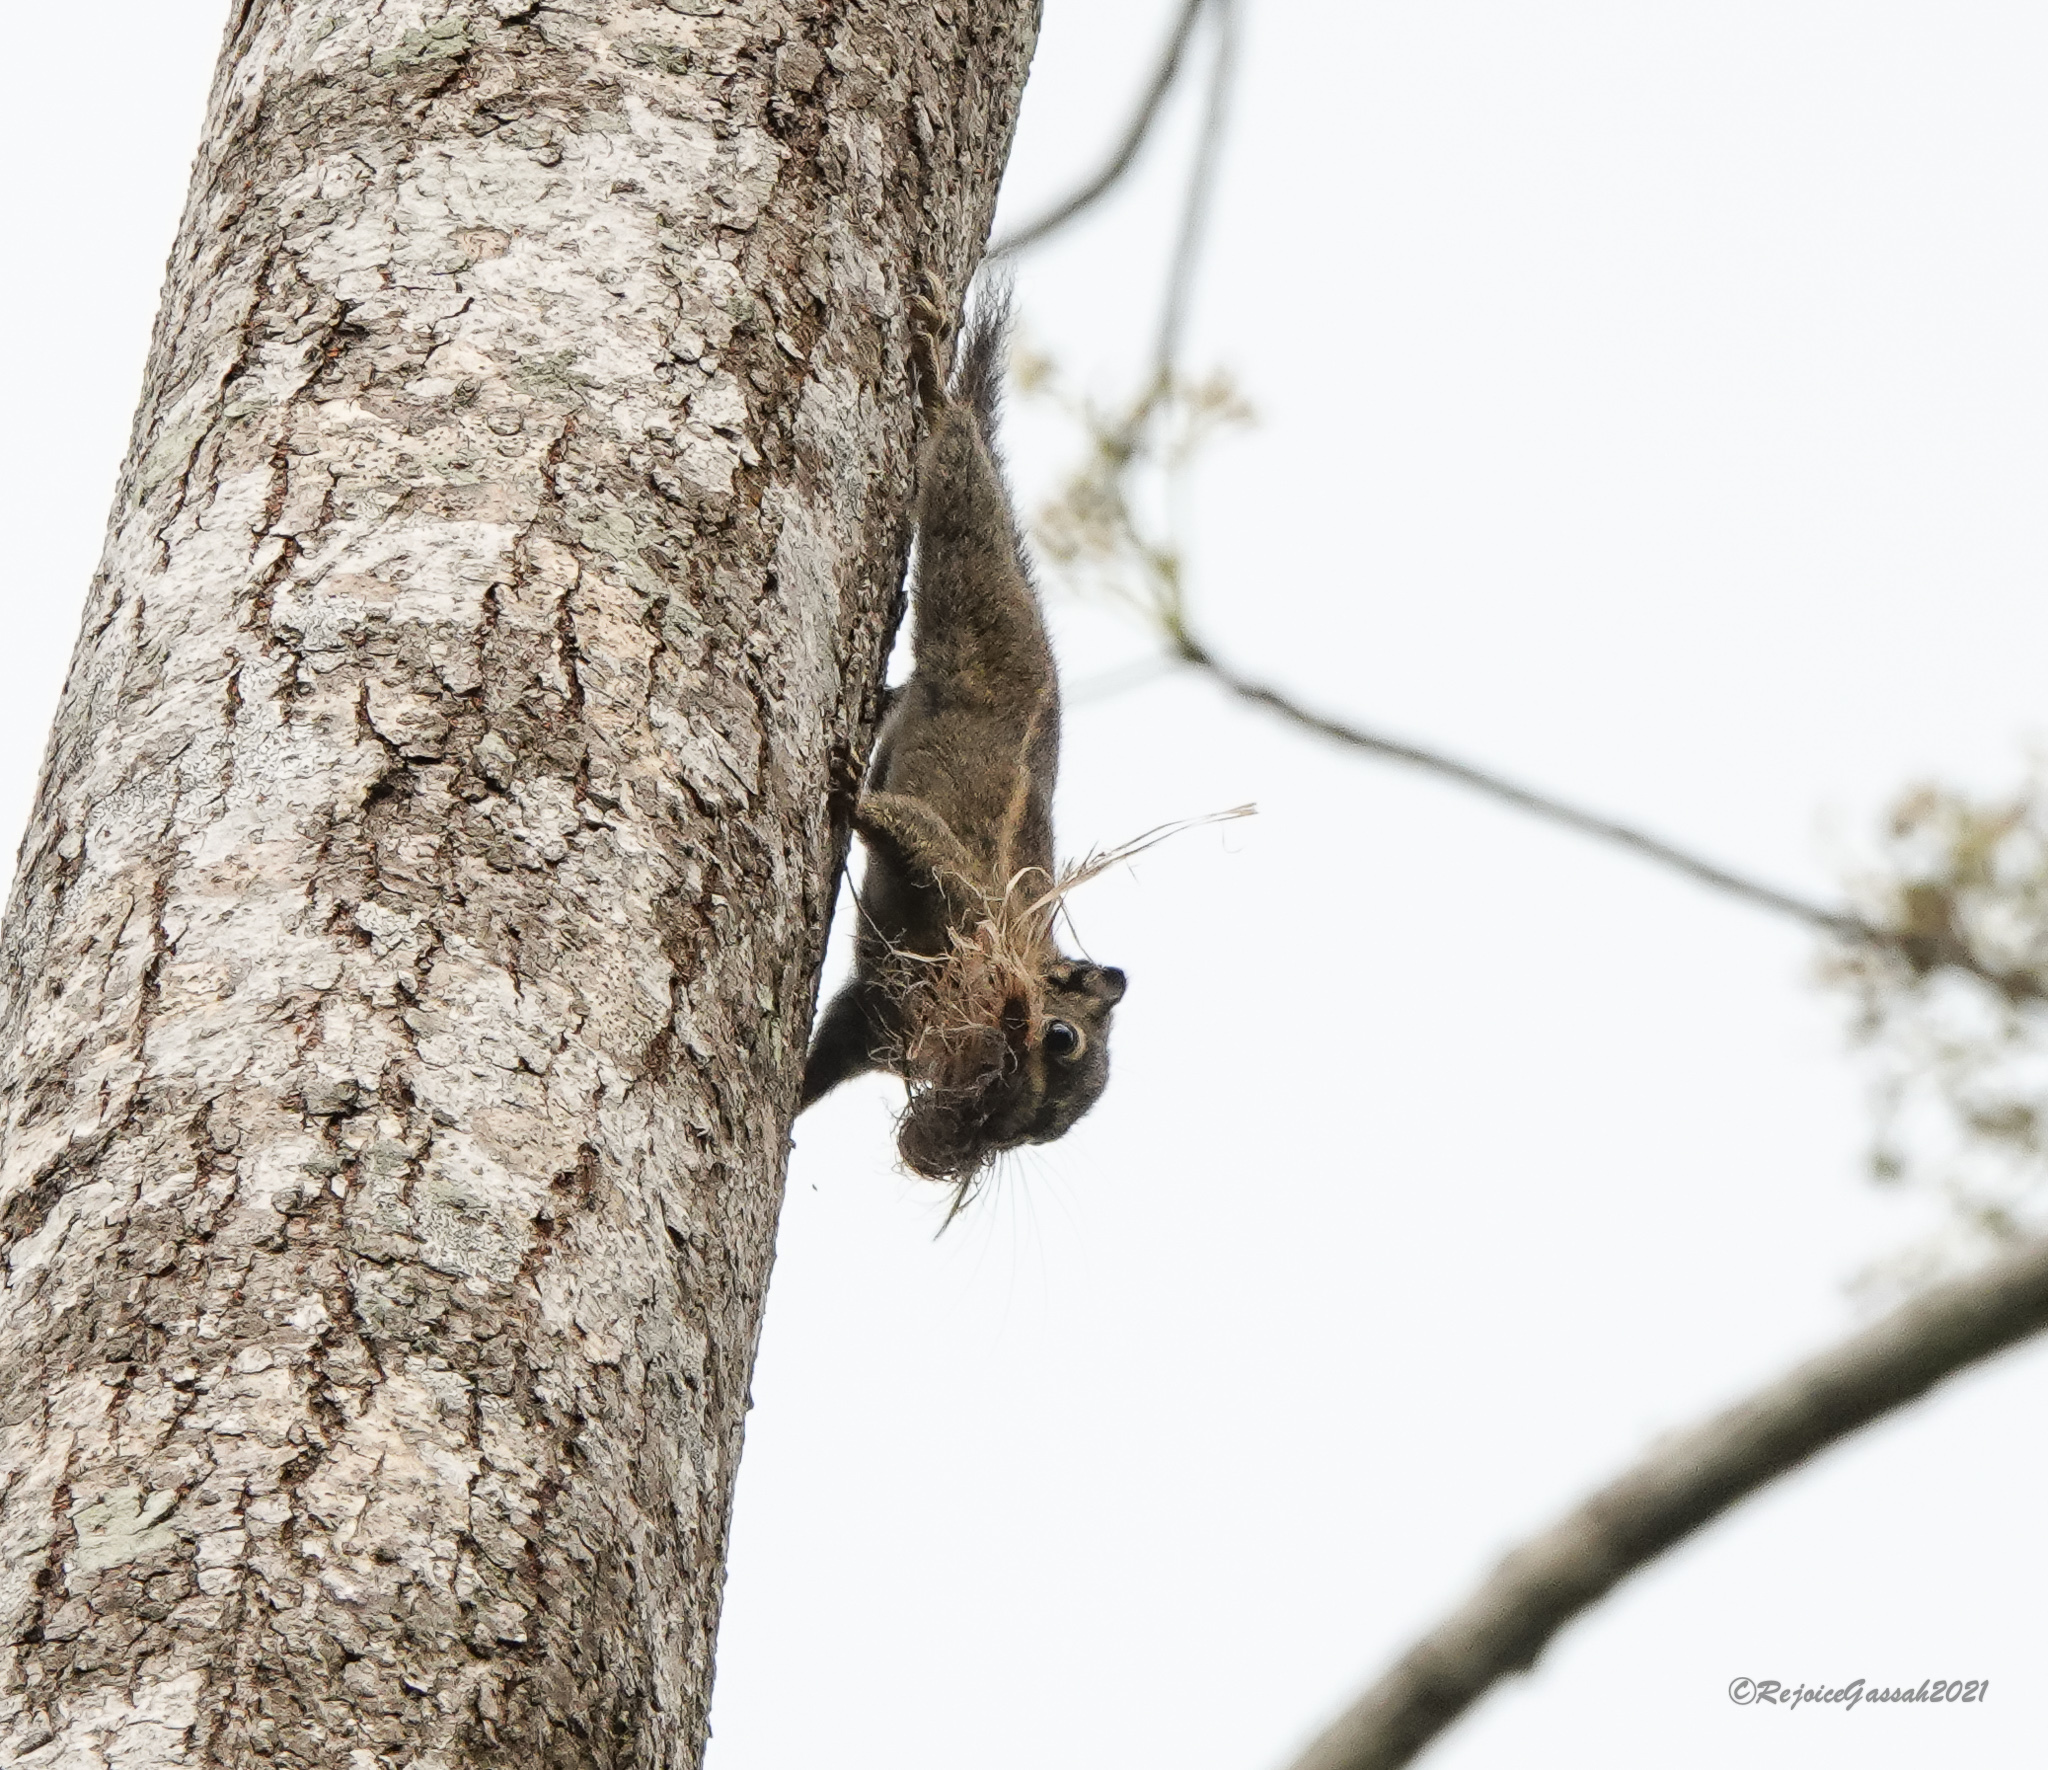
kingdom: Animalia
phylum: Chordata
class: Mammalia
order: Rodentia
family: Sciuridae
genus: Tamiops
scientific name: Tamiops mcclellandii
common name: Himalayan striped squirrel
